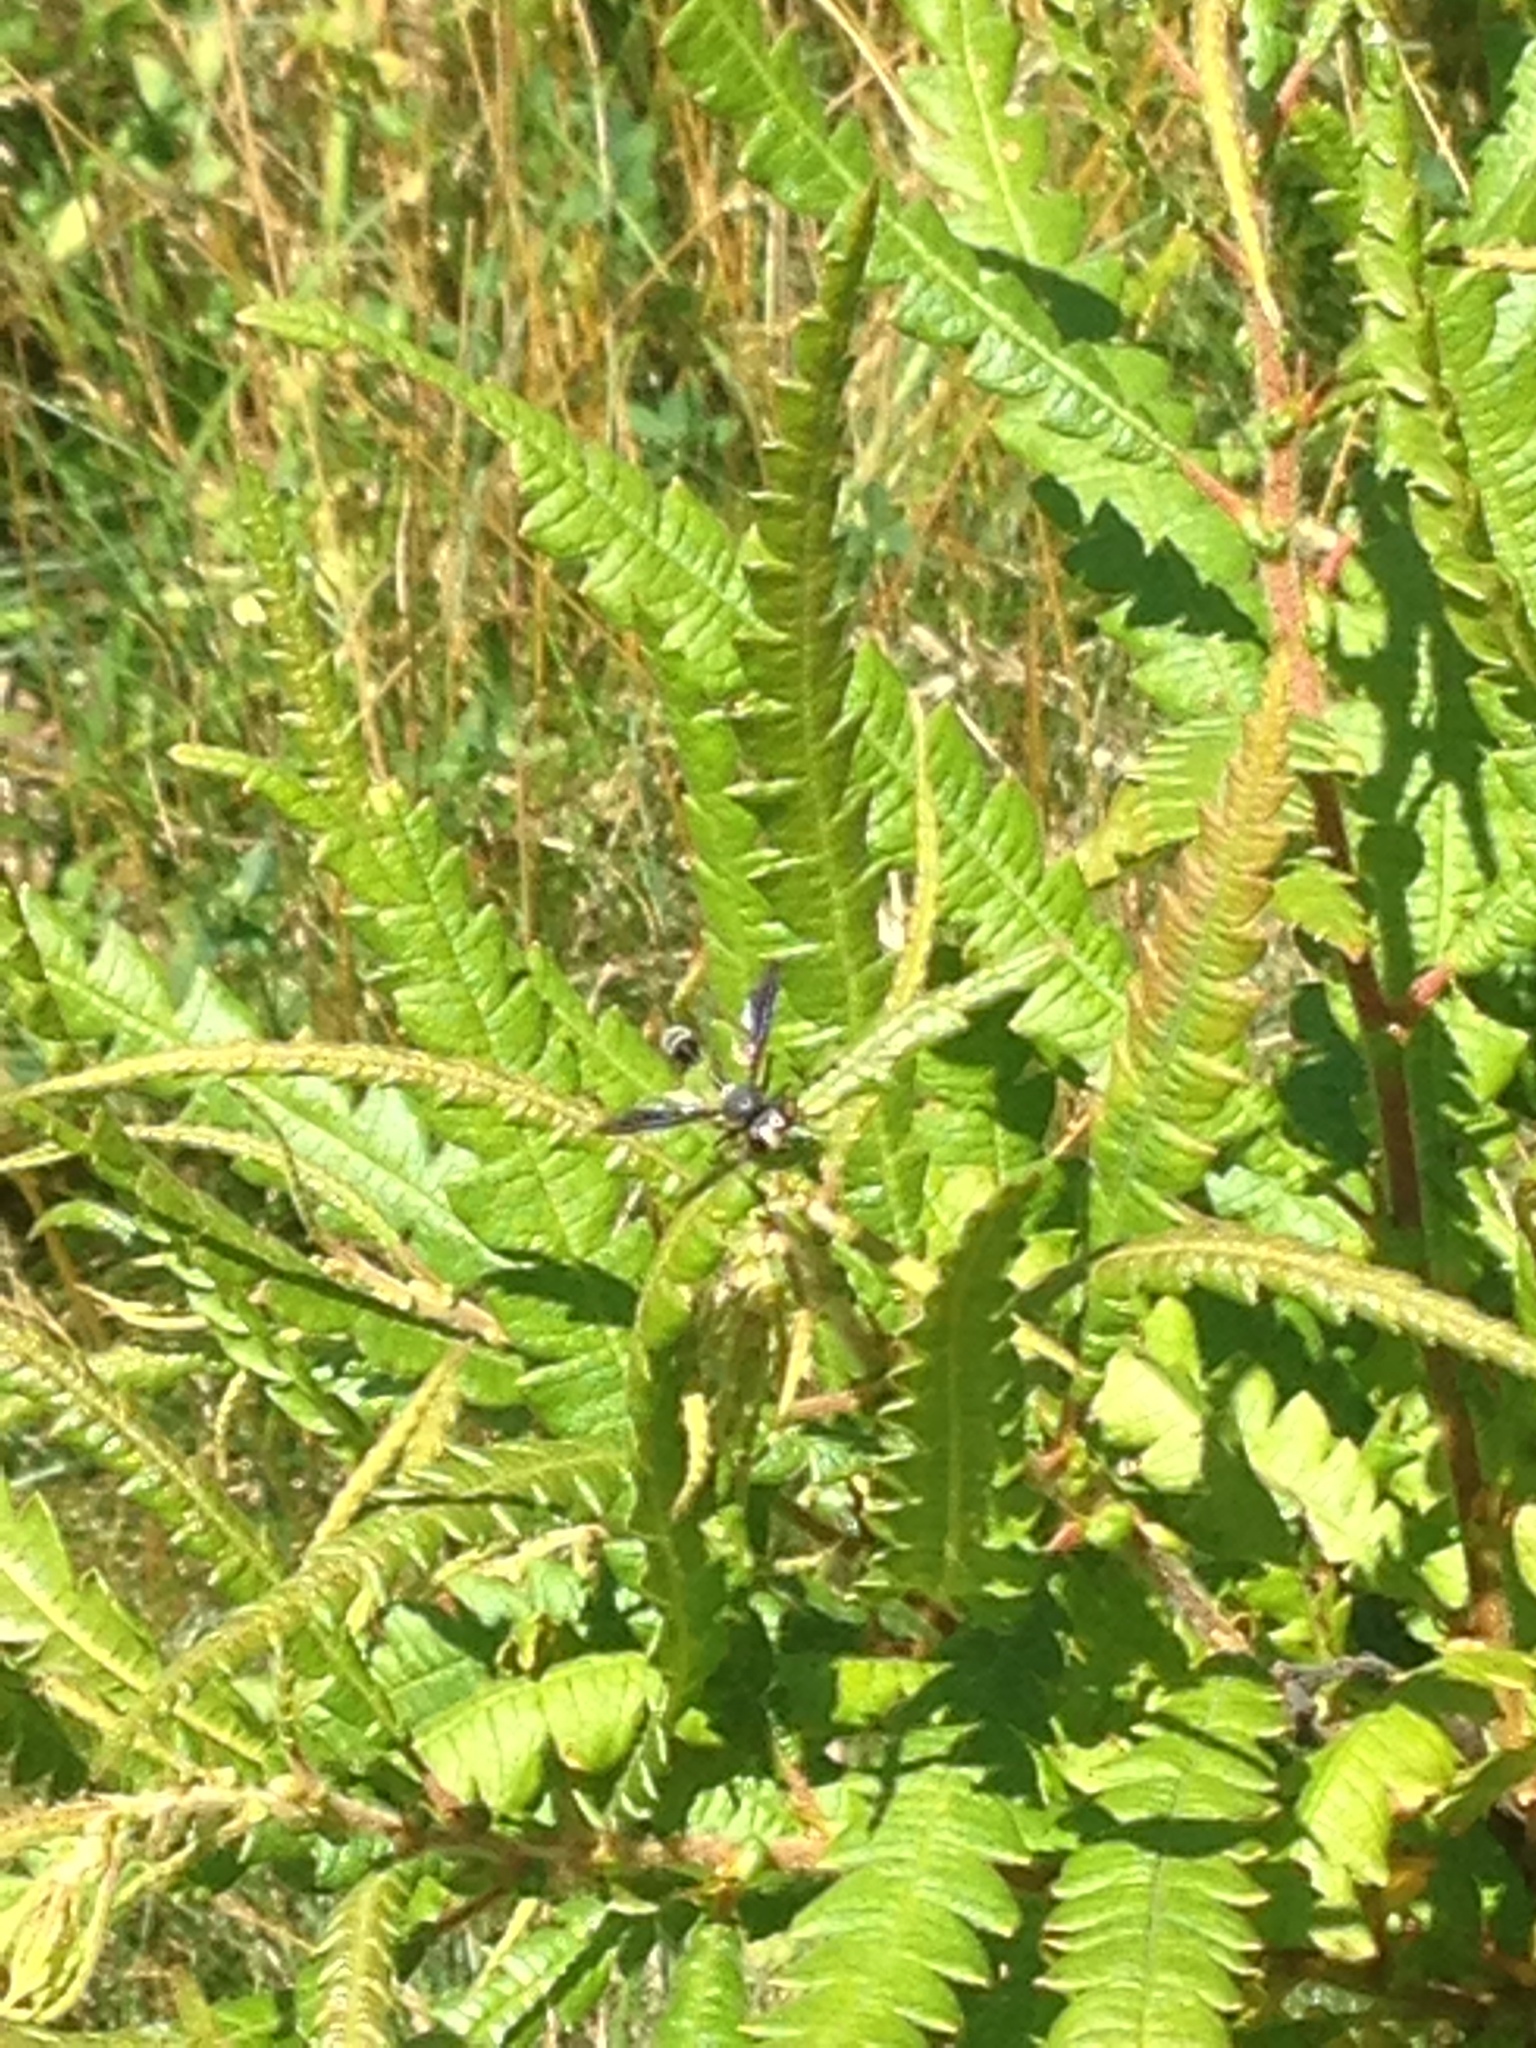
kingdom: Animalia
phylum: Arthropoda
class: Insecta
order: Diptera
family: Conopidae
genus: Physocephala
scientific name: Physocephala tibialis
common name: Common eastern physocephala
